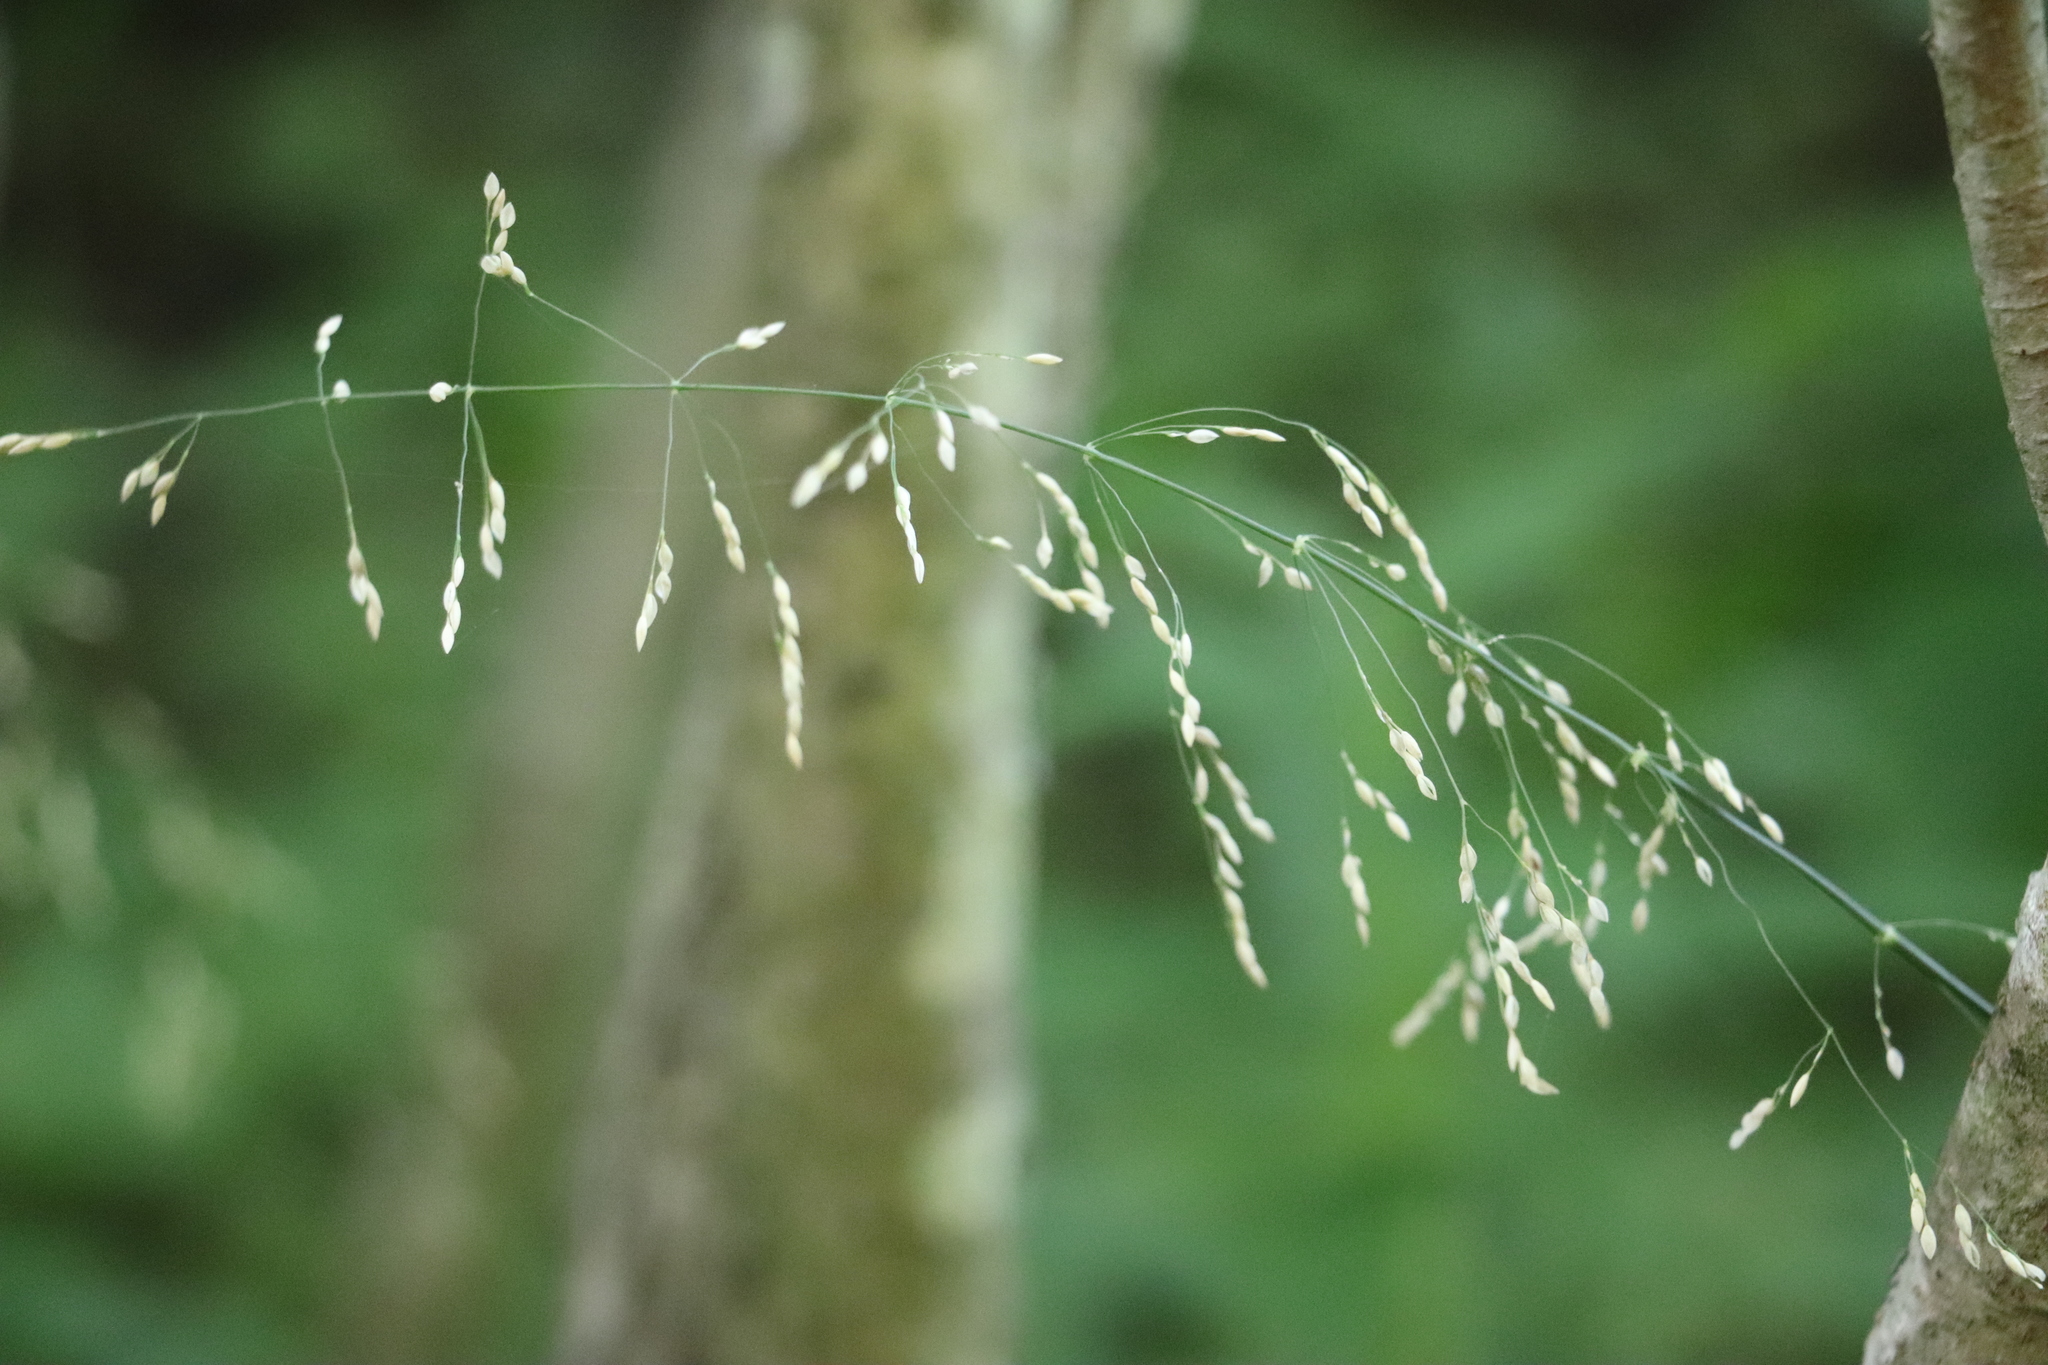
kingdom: Plantae
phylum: Tracheophyta
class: Liliopsida
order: Poales
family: Poaceae
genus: Milium
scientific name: Milium effusum
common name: Wood millet
